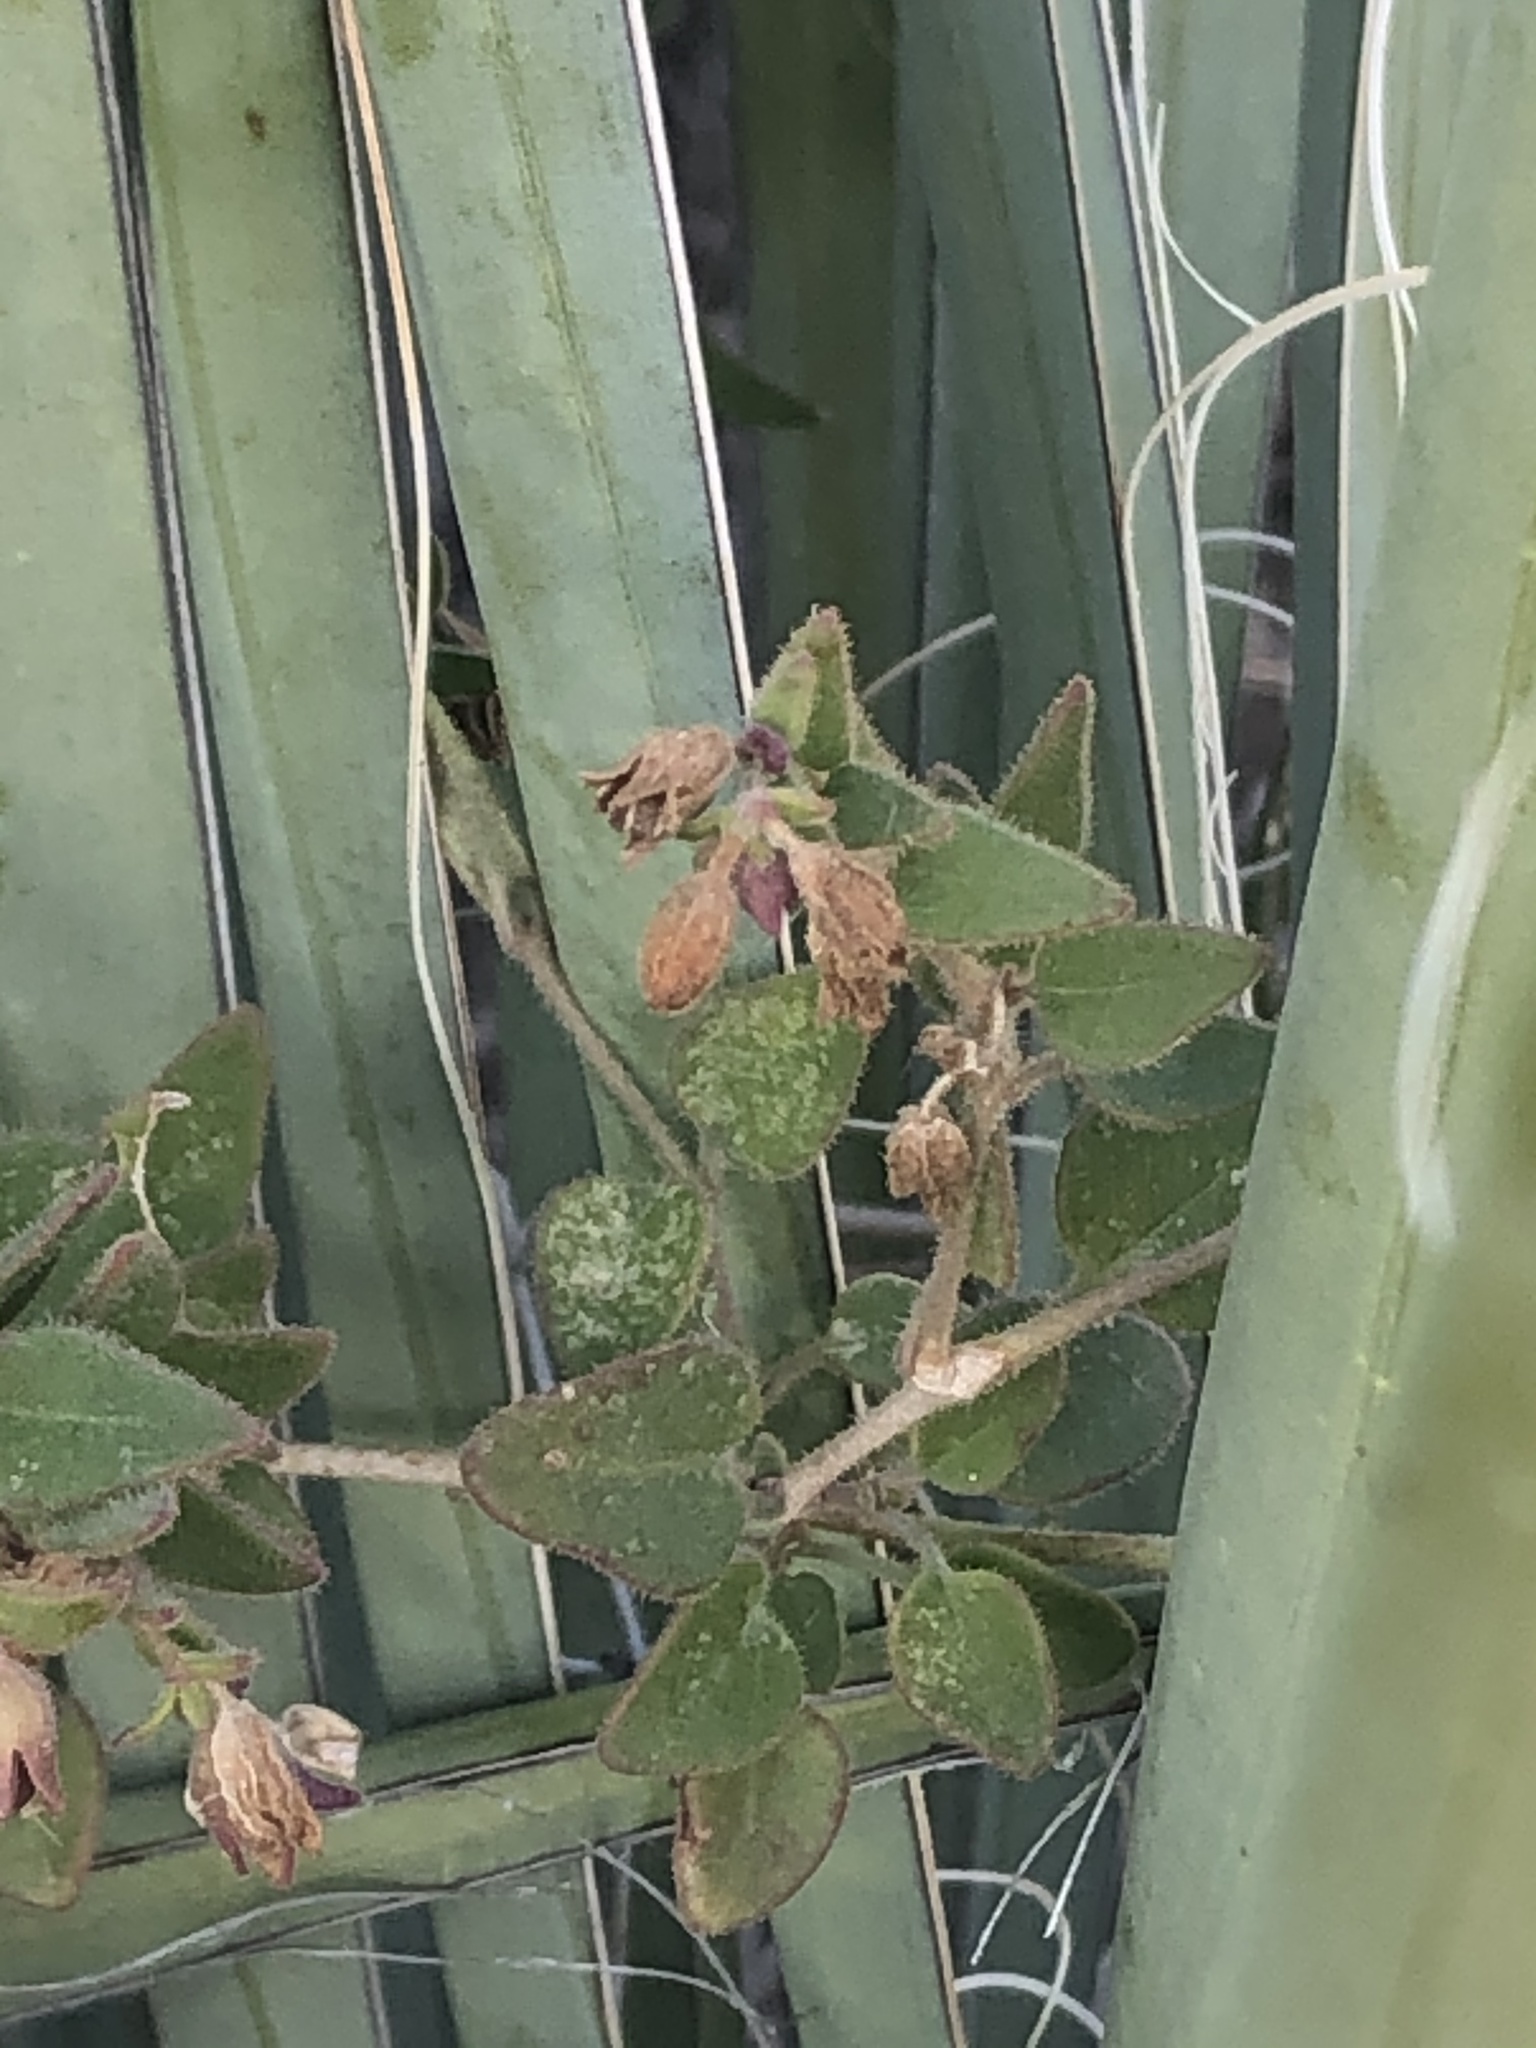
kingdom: Plantae
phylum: Tracheophyta
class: Magnoliopsida
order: Caryophyllales
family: Nyctaginaceae
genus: Mirabilis
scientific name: Mirabilis laevis
